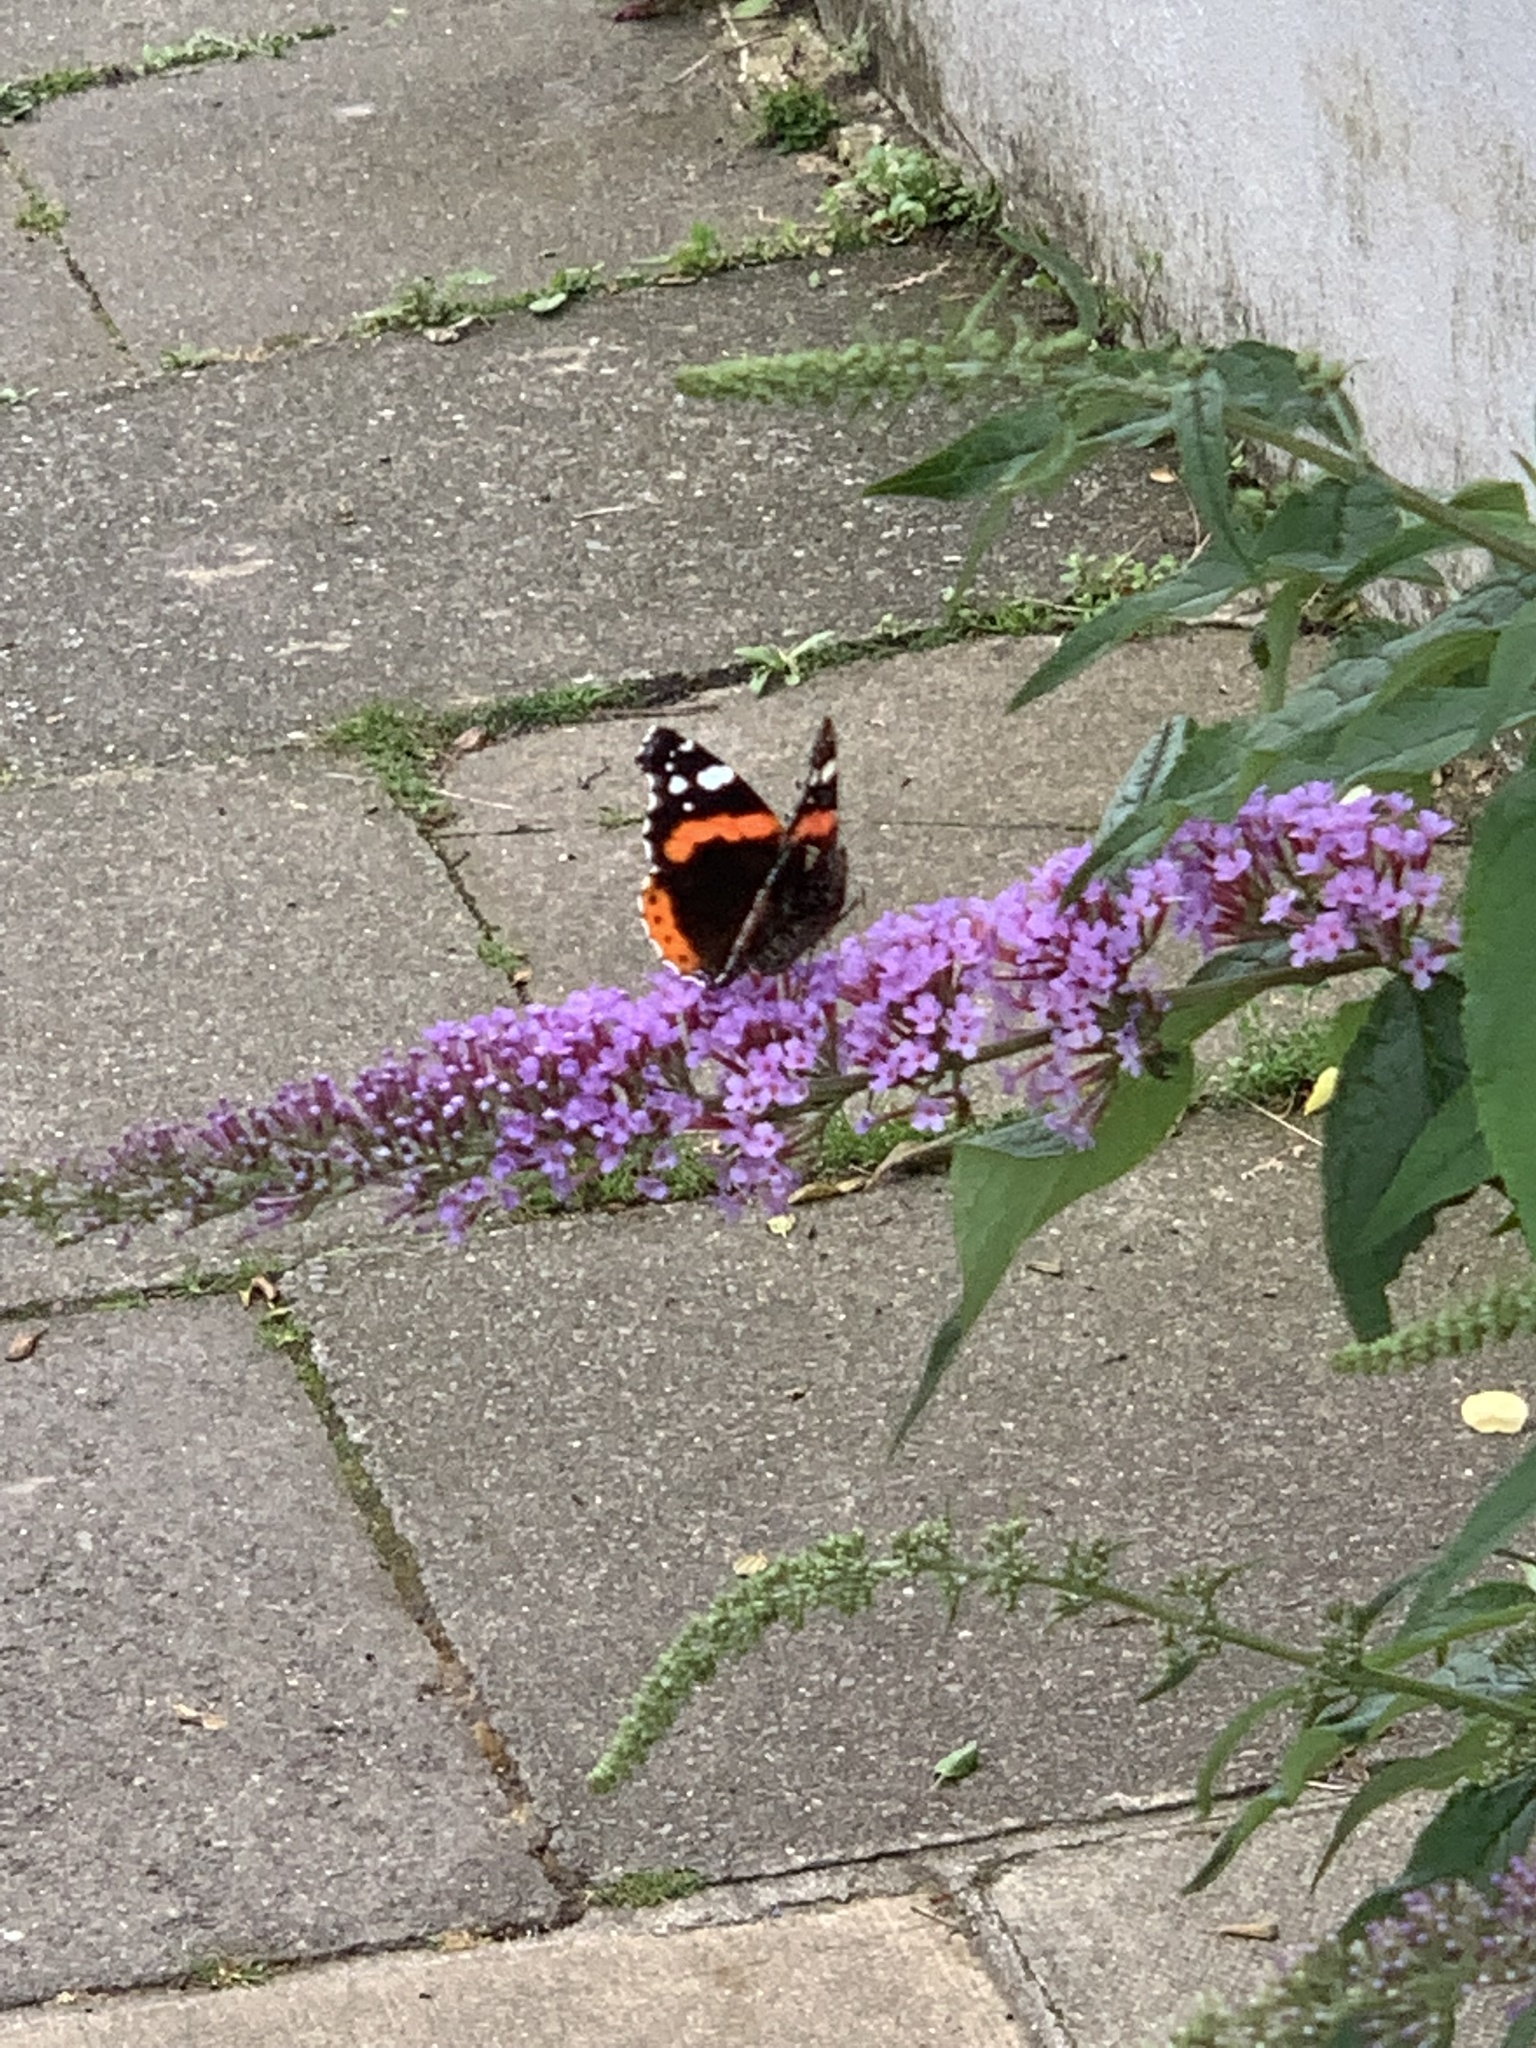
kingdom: Animalia
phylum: Arthropoda
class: Insecta
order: Lepidoptera
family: Nymphalidae
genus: Vanessa
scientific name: Vanessa atalanta
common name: Red admiral
